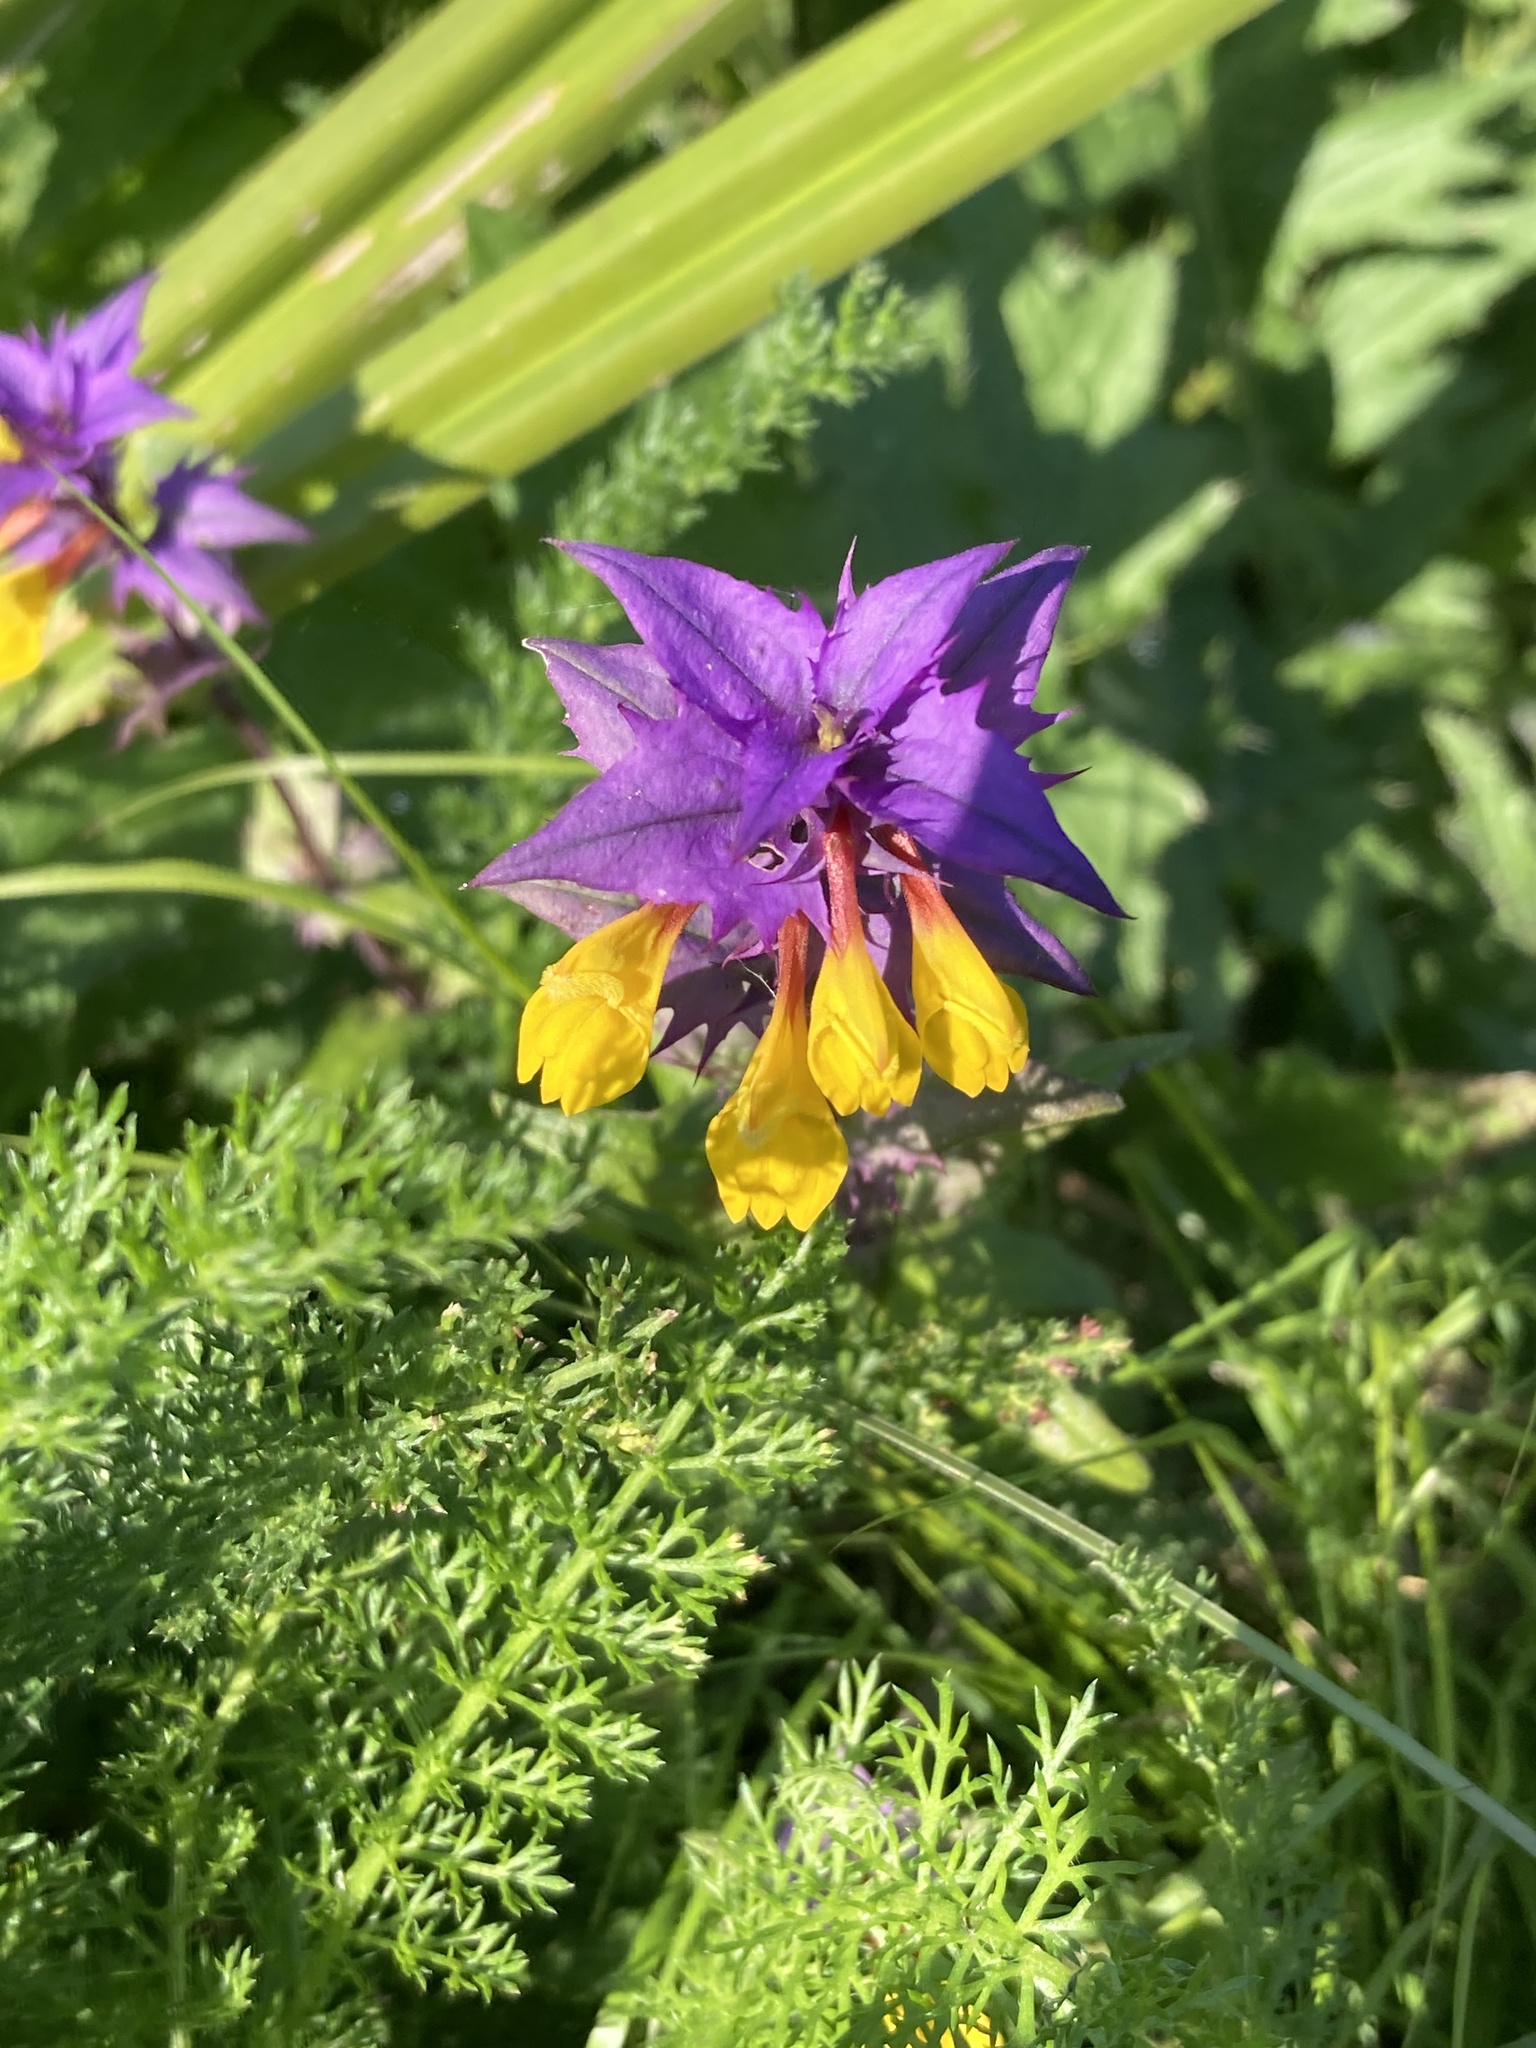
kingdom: Plantae
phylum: Tracheophyta
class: Magnoliopsida
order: Lamiales
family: Orobanchaceae
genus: Melampyrum
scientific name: Melampyrum nemorosum
